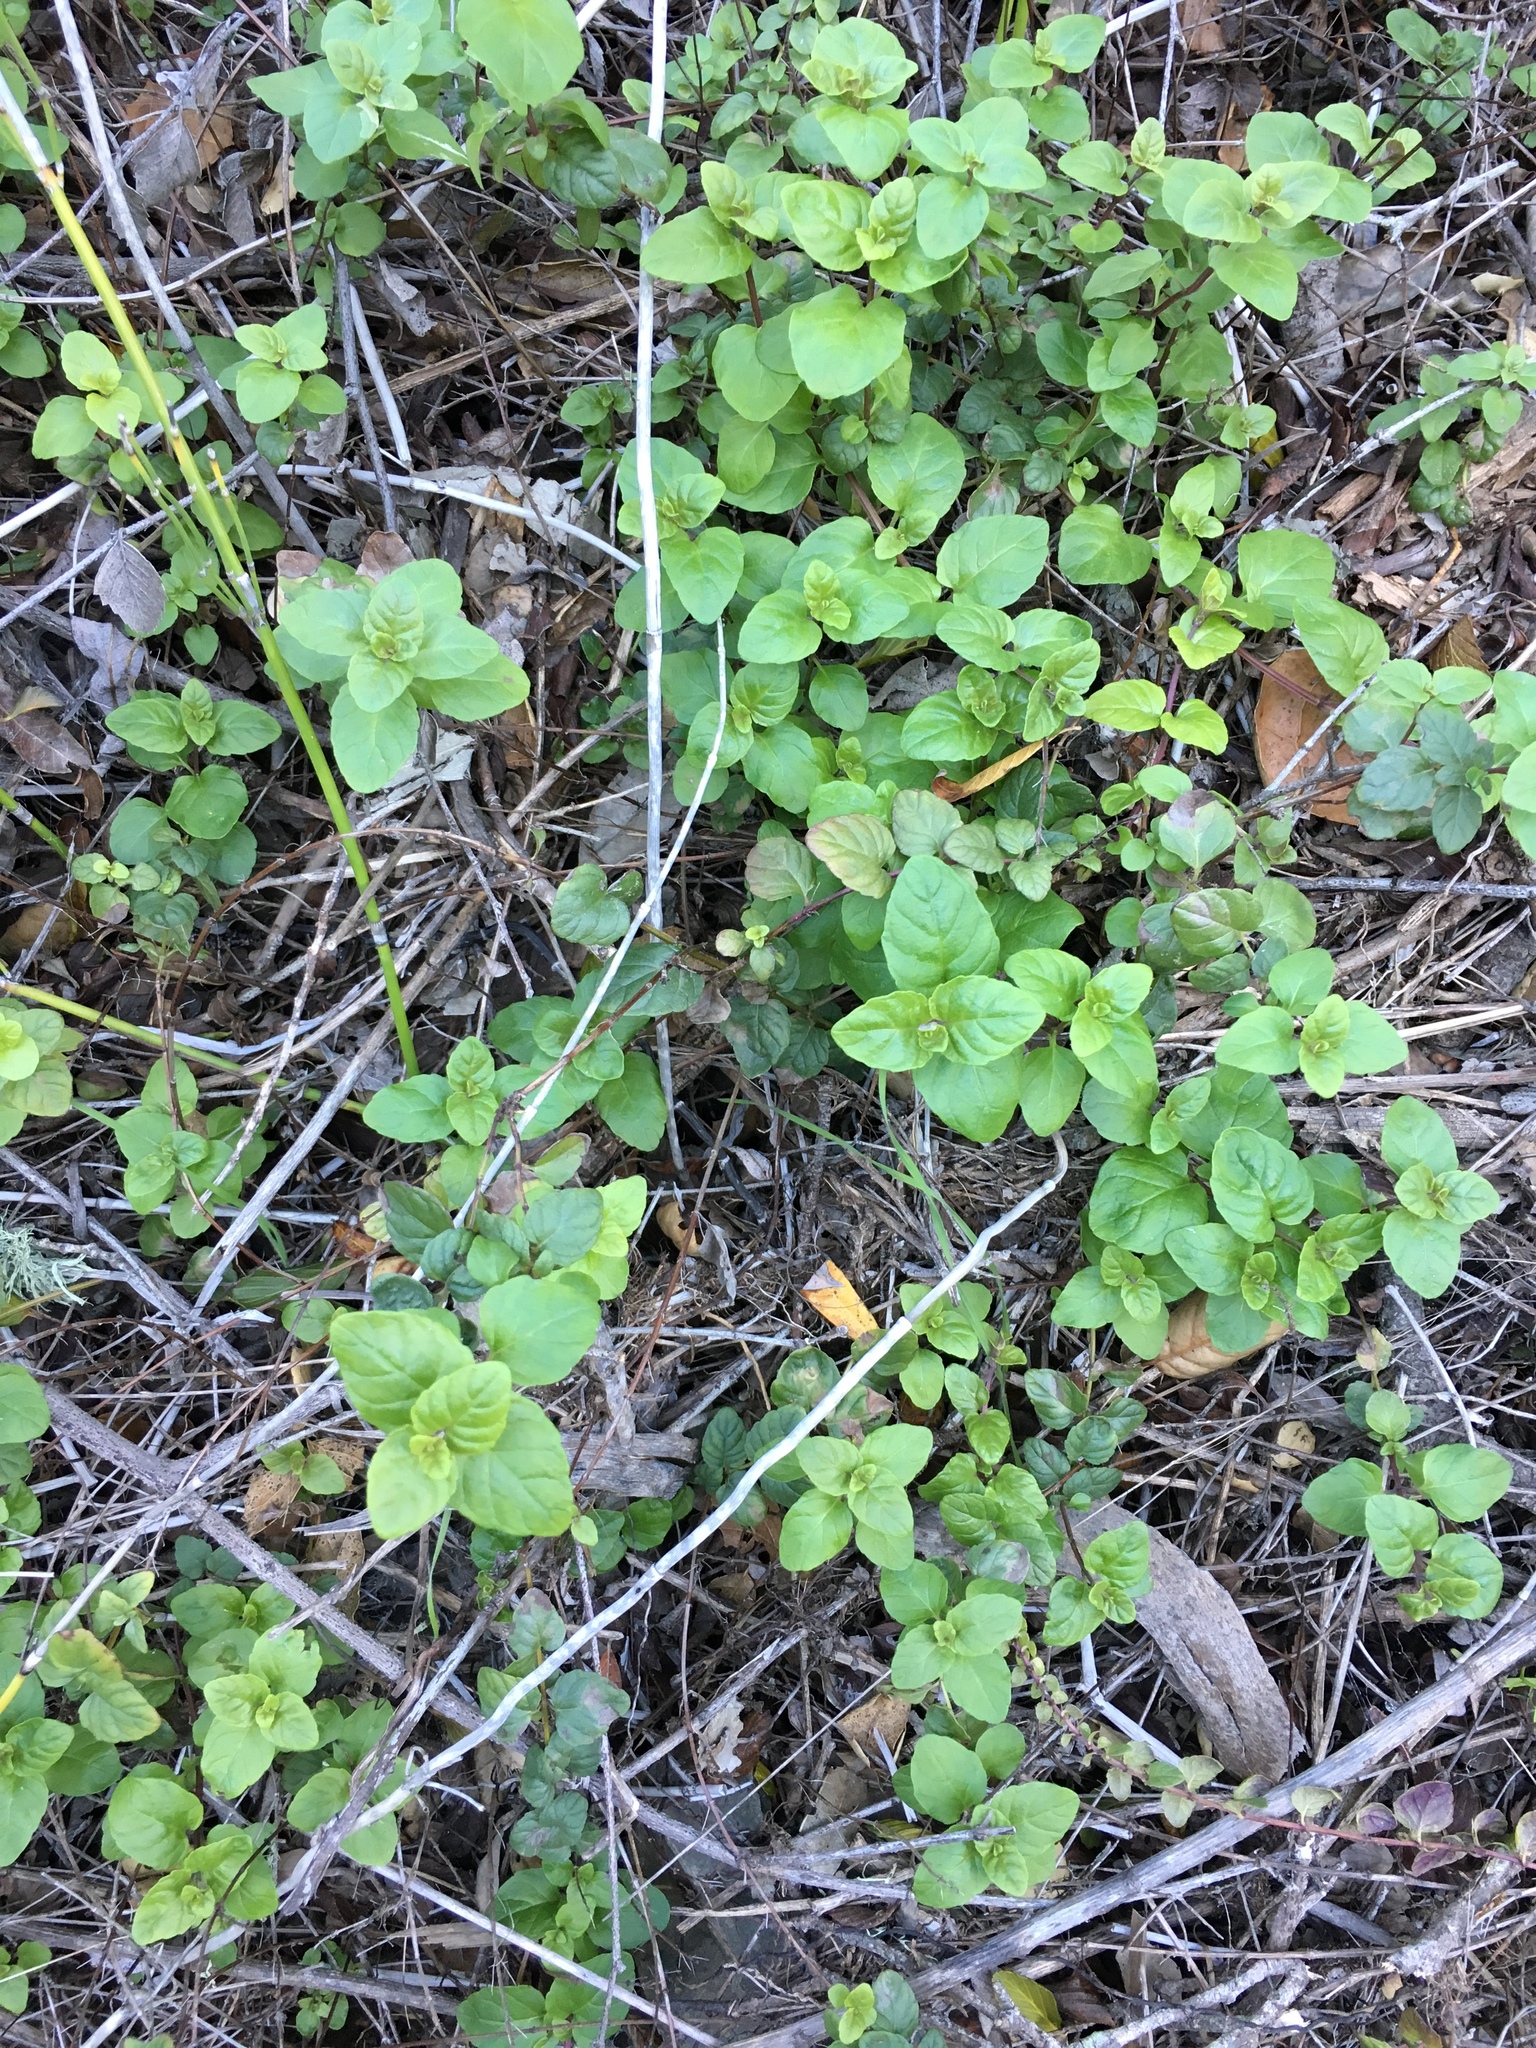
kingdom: Plantae
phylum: Tracheophyta
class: Magnoliopsida
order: Lamiales
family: Lamiaceae
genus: Micromeria
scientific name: Micromeria douglasii
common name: Yerba buena
